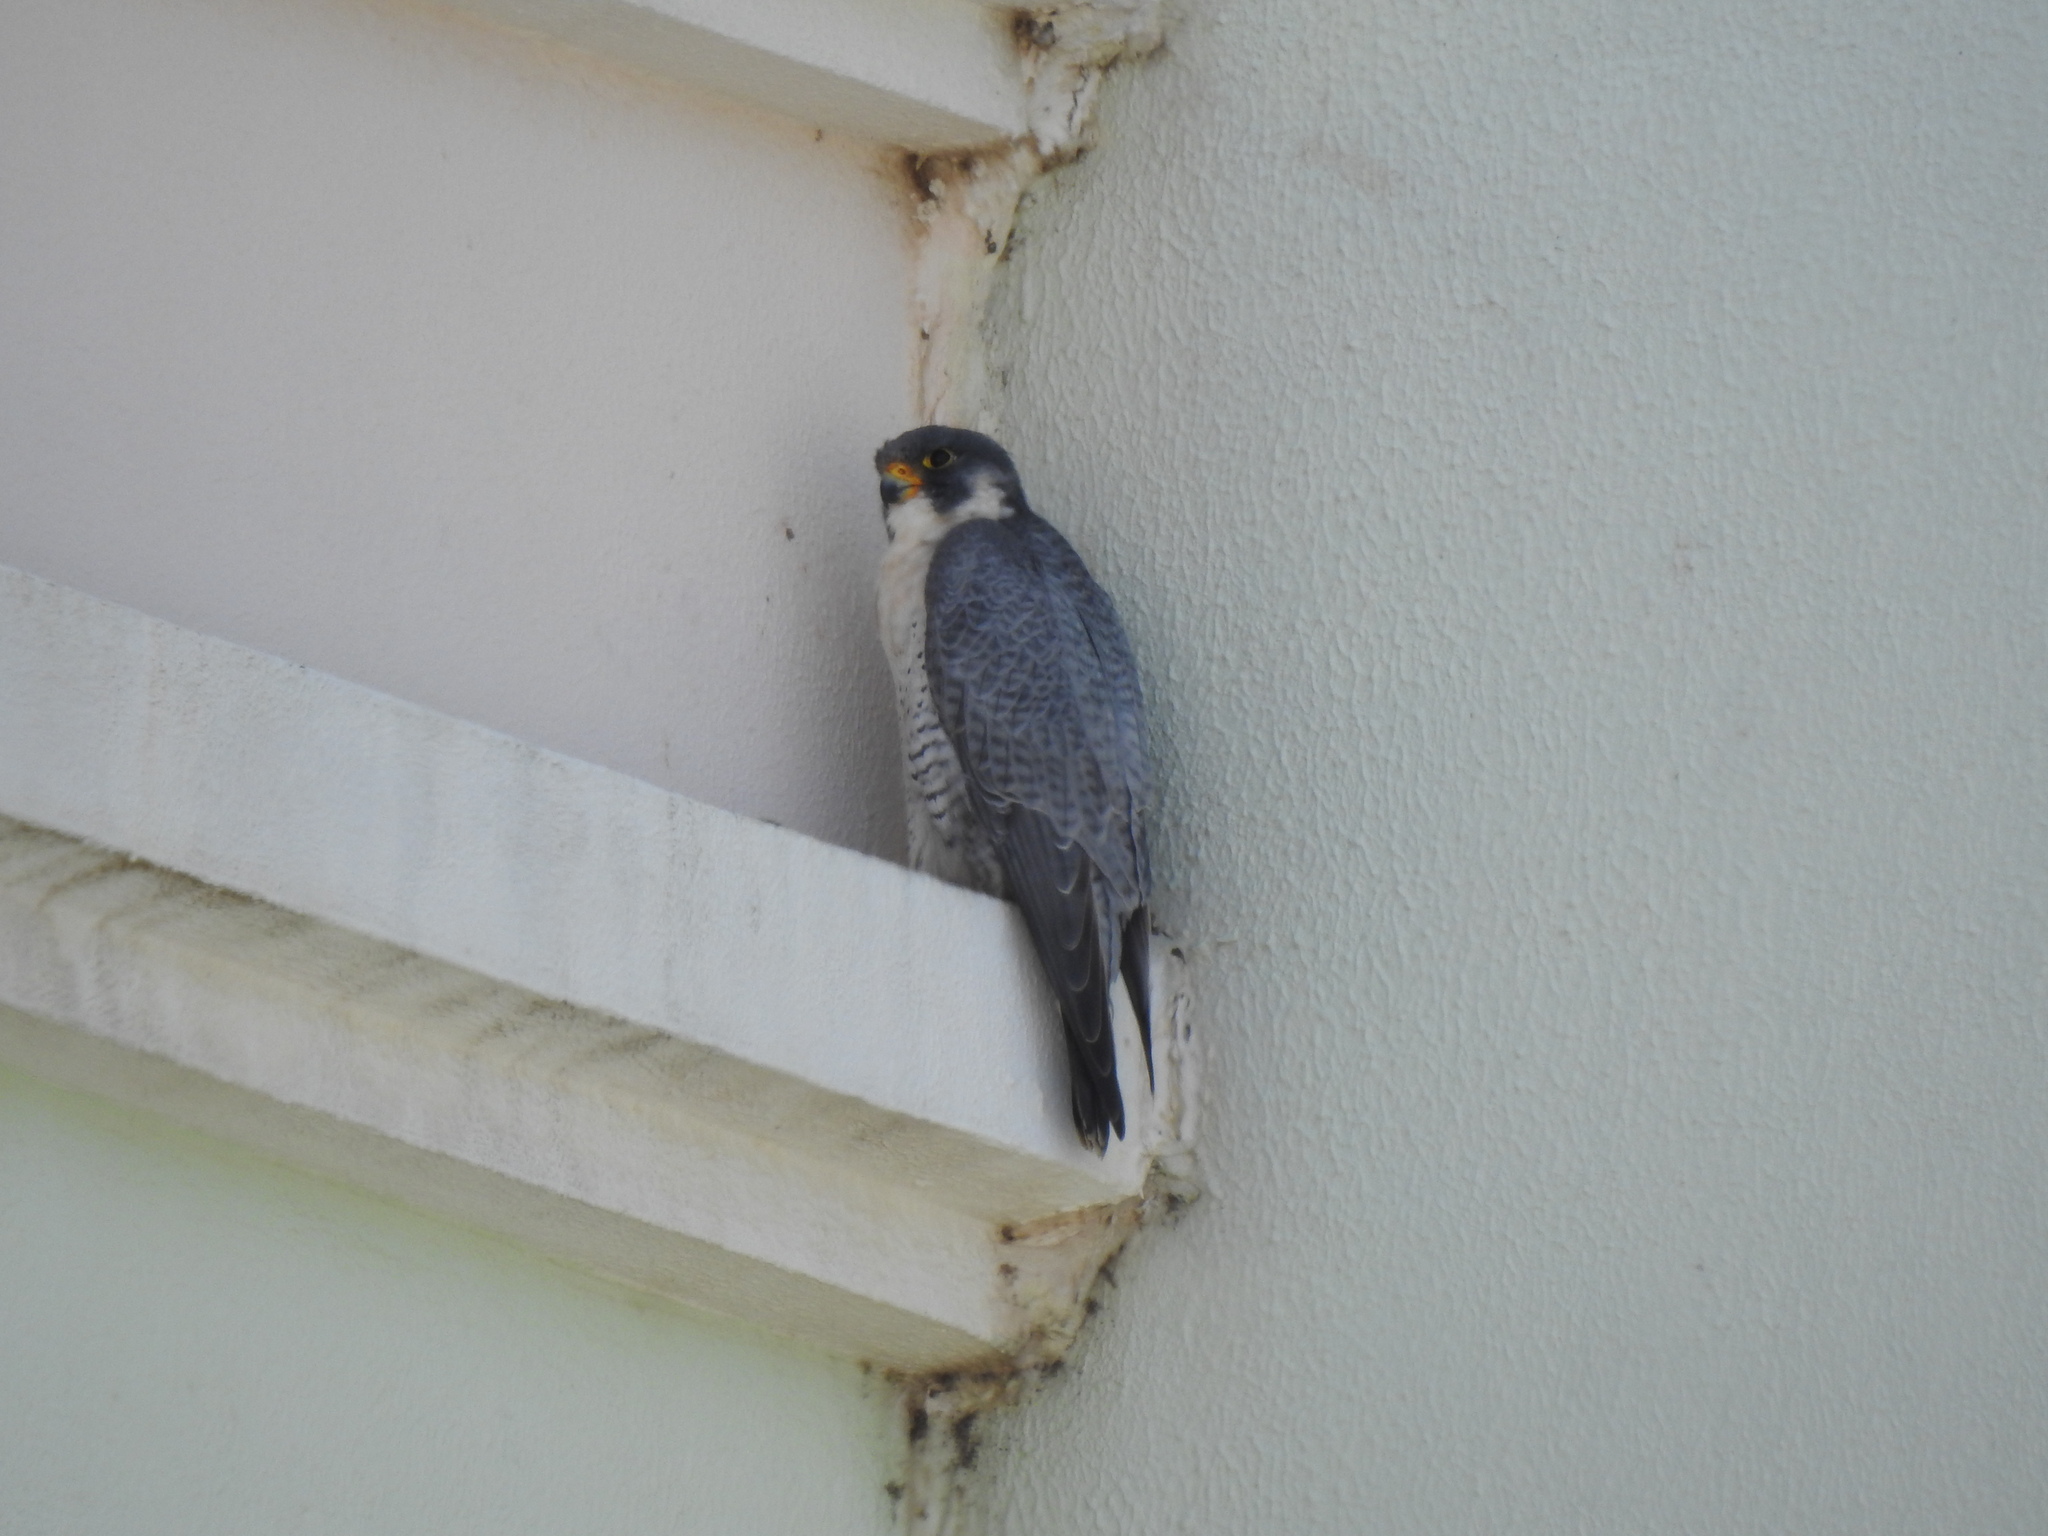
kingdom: Animalia
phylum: Chordata
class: Aves
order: Falconiformes
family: Falconidae
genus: Falco
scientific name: Falco peregrinus
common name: Peregrine falcon
